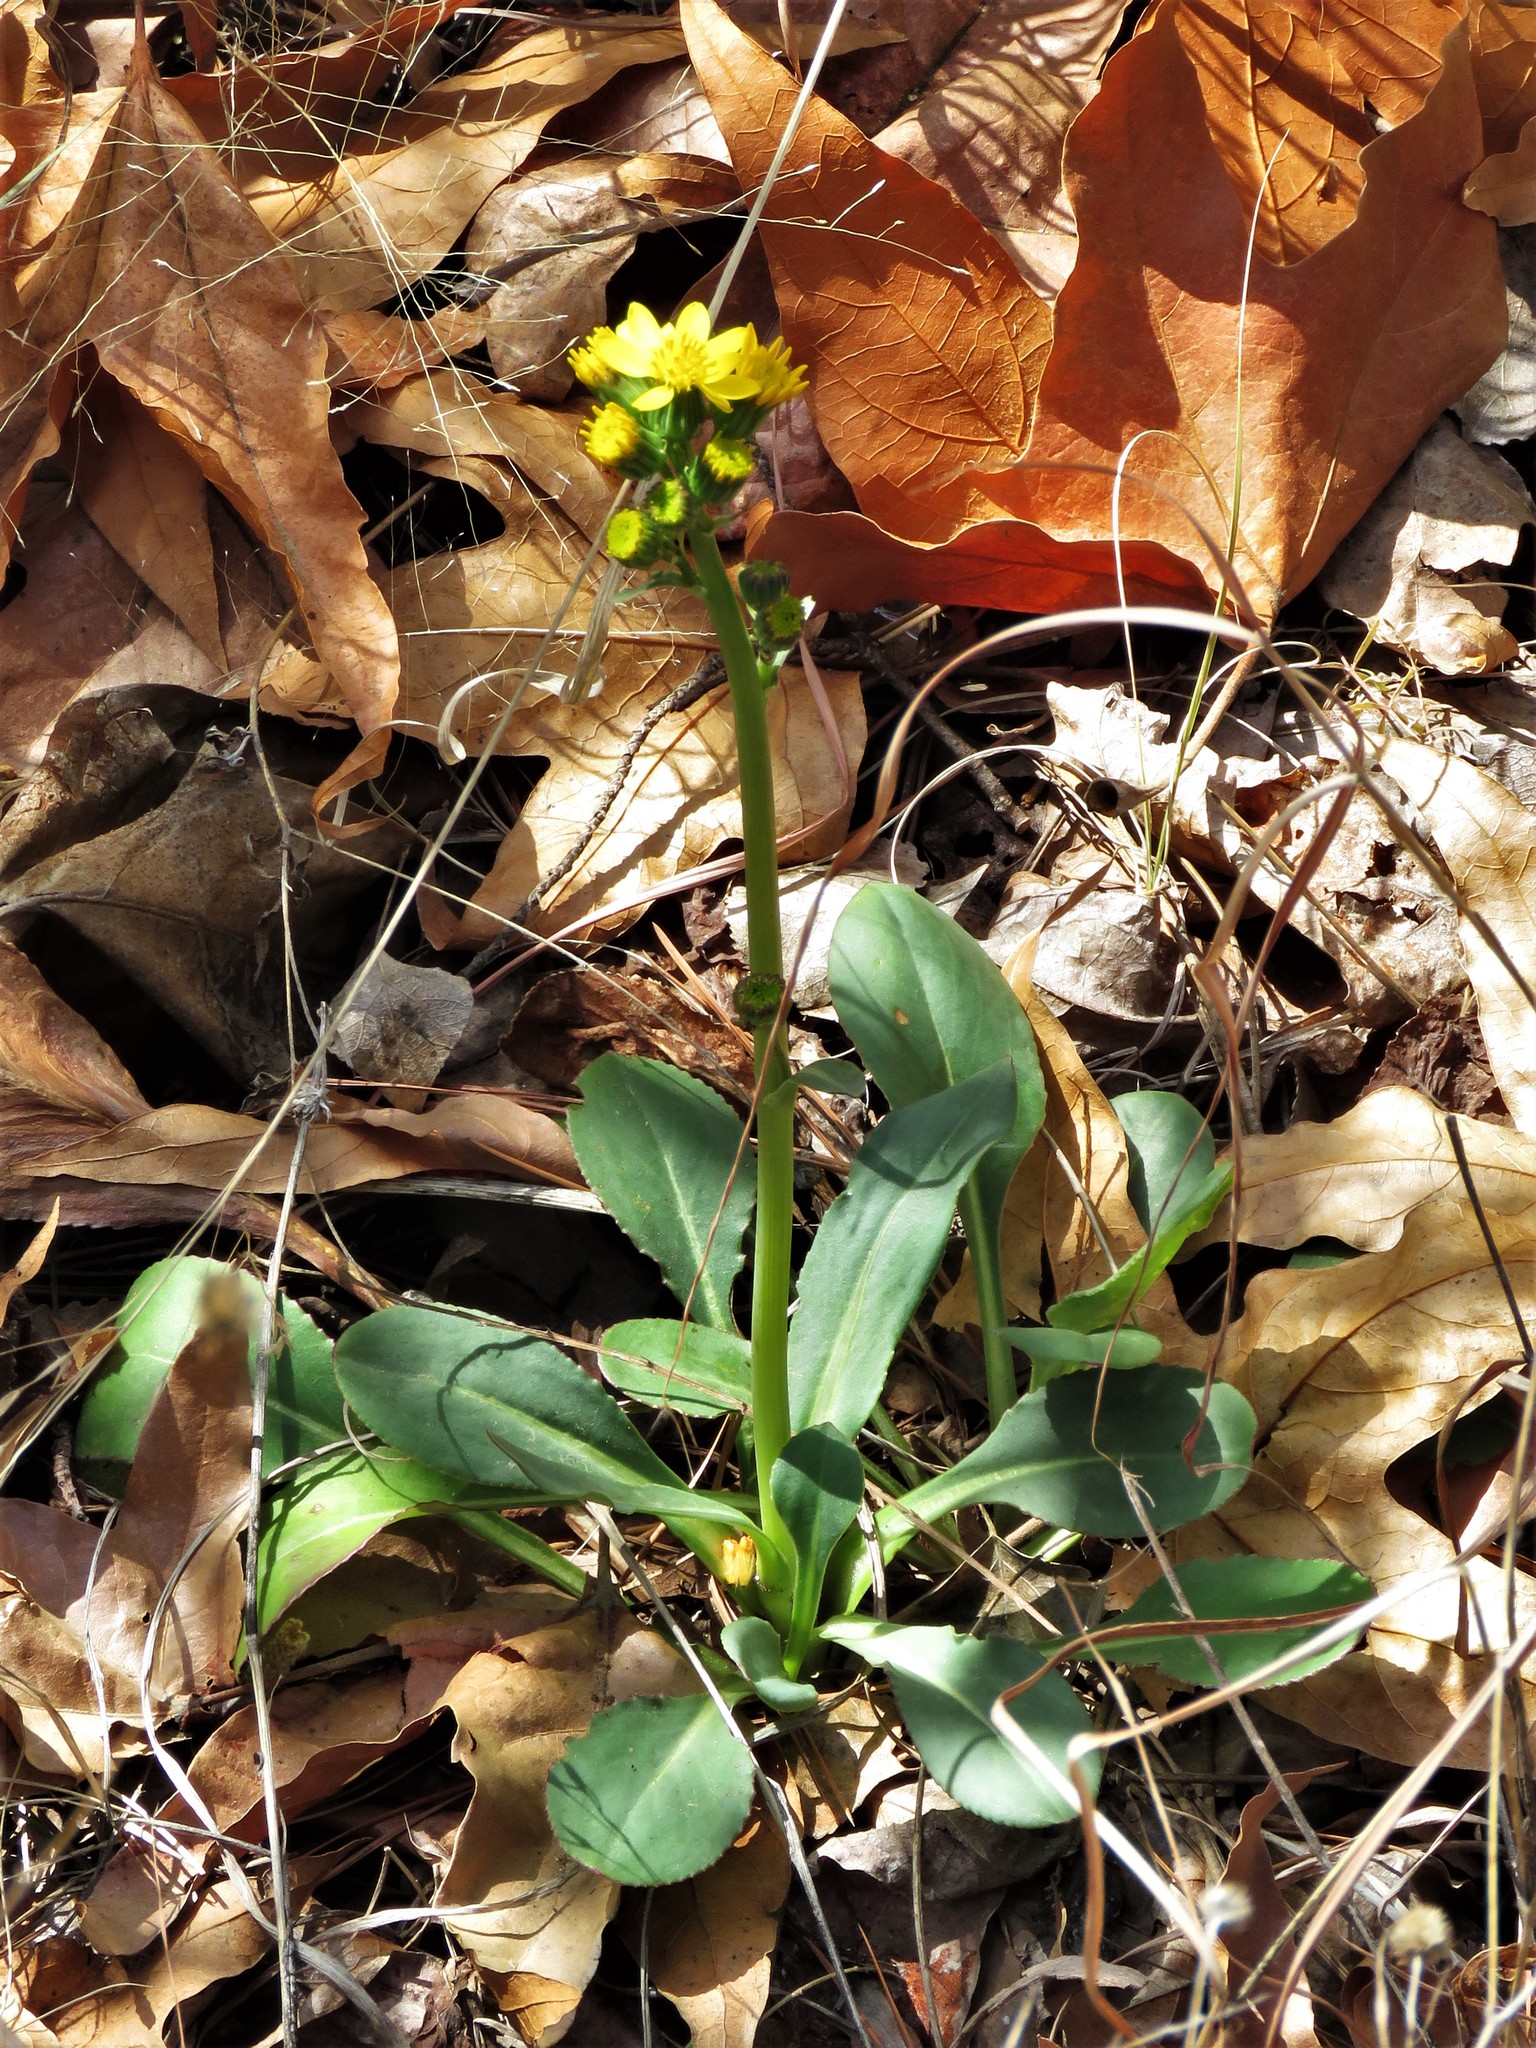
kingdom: Plantae
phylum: Tracheophyta
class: Magnoliopsida
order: Asterales
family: Asteraceae
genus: Senecio
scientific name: Senecio wootonii
